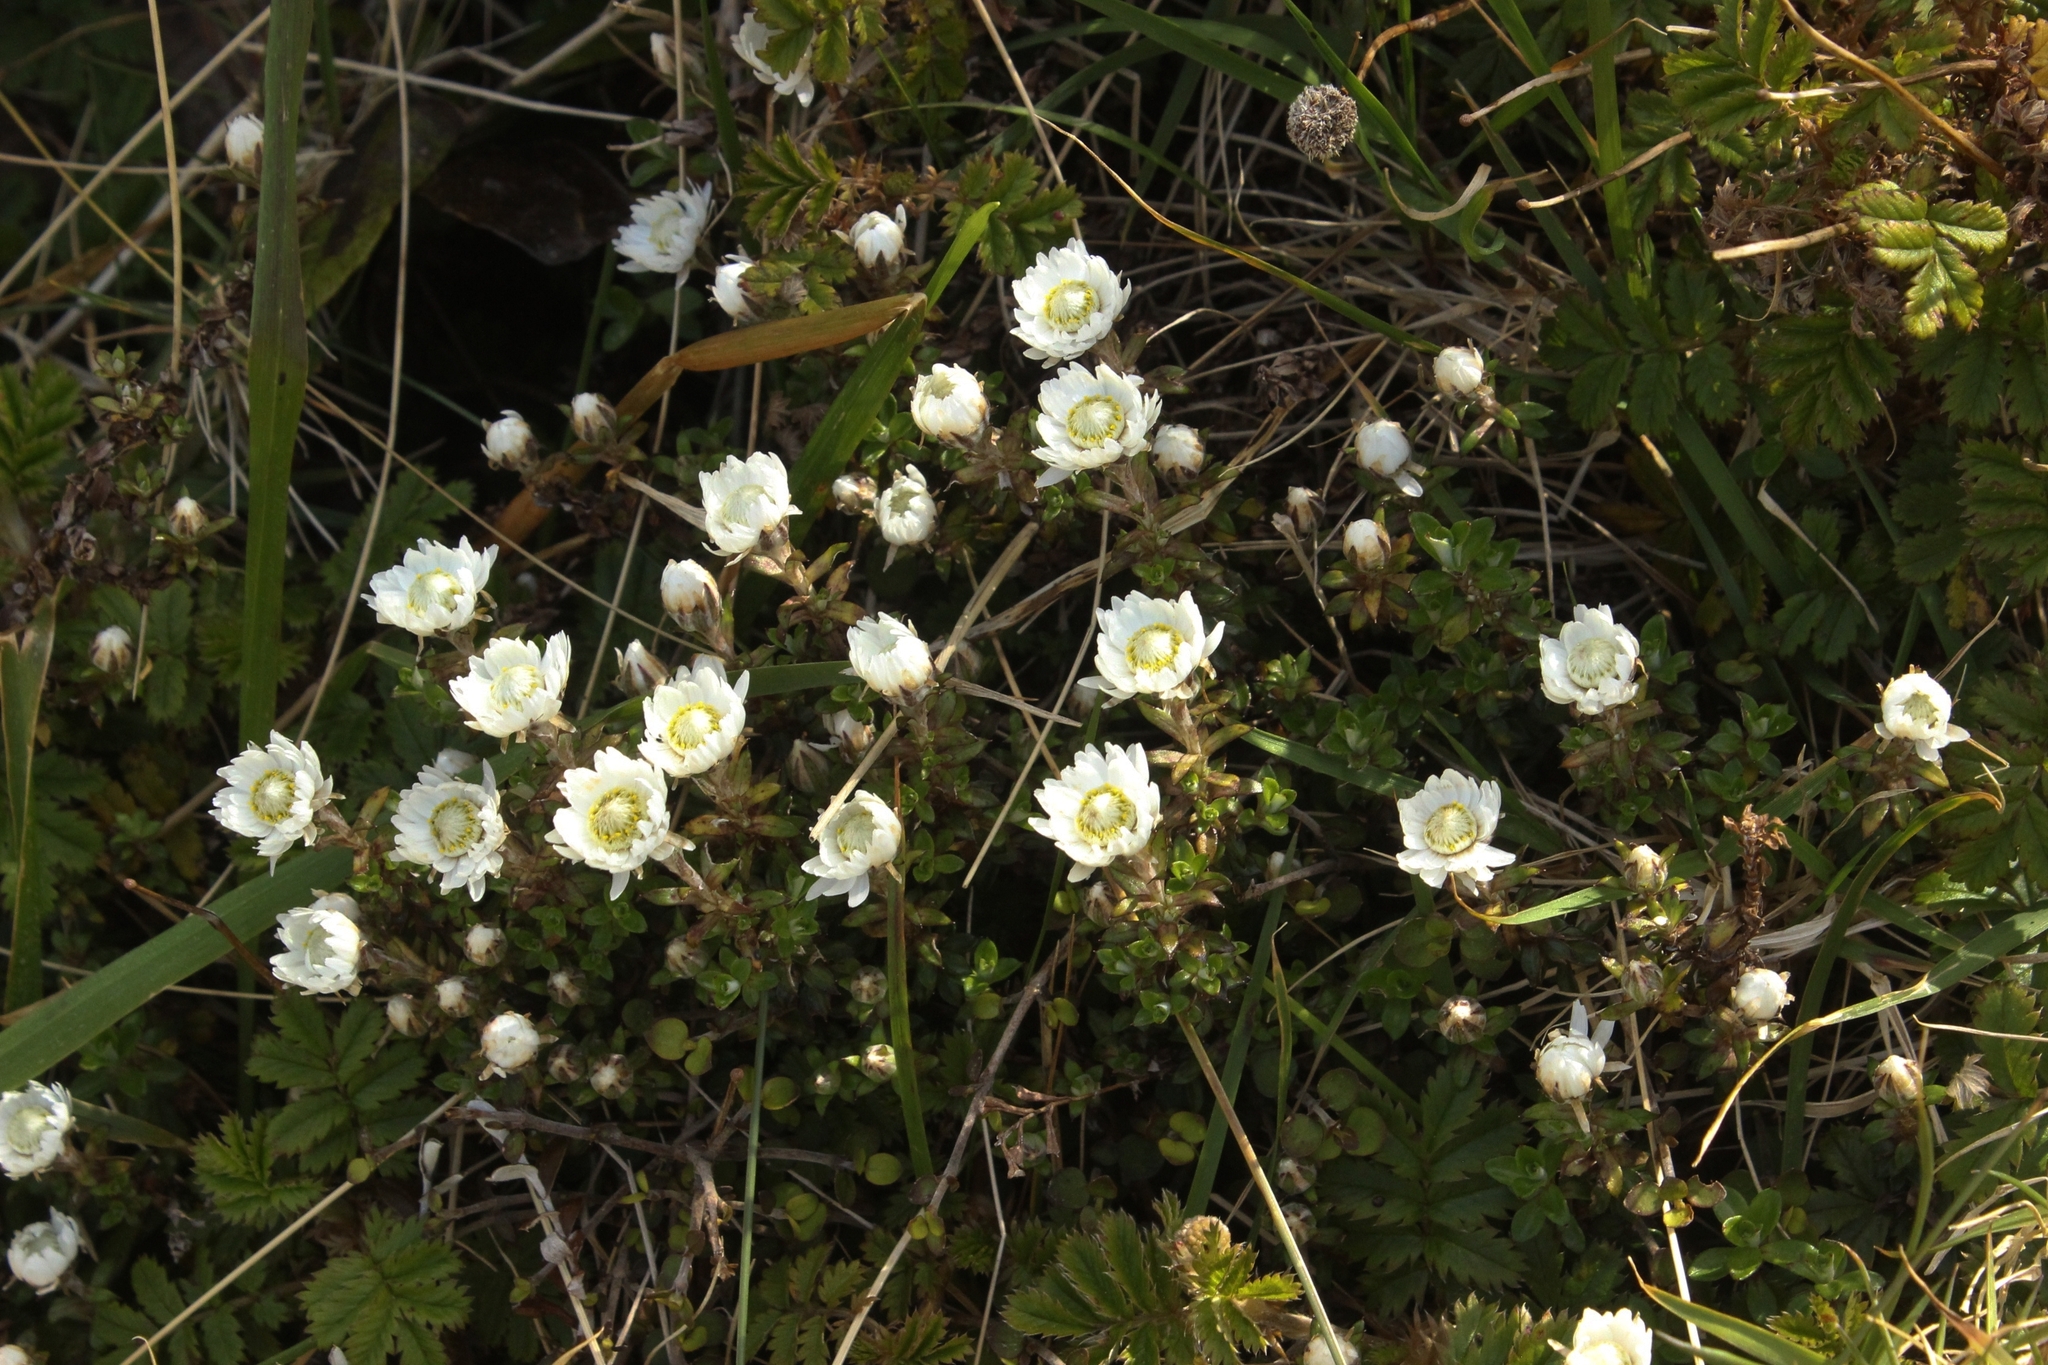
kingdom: Plantae
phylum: Tracheophyta
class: Magnoliopsida
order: Asterales
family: Asteraceae
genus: Anaphalioides
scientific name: Anaphalioides bellidioides
